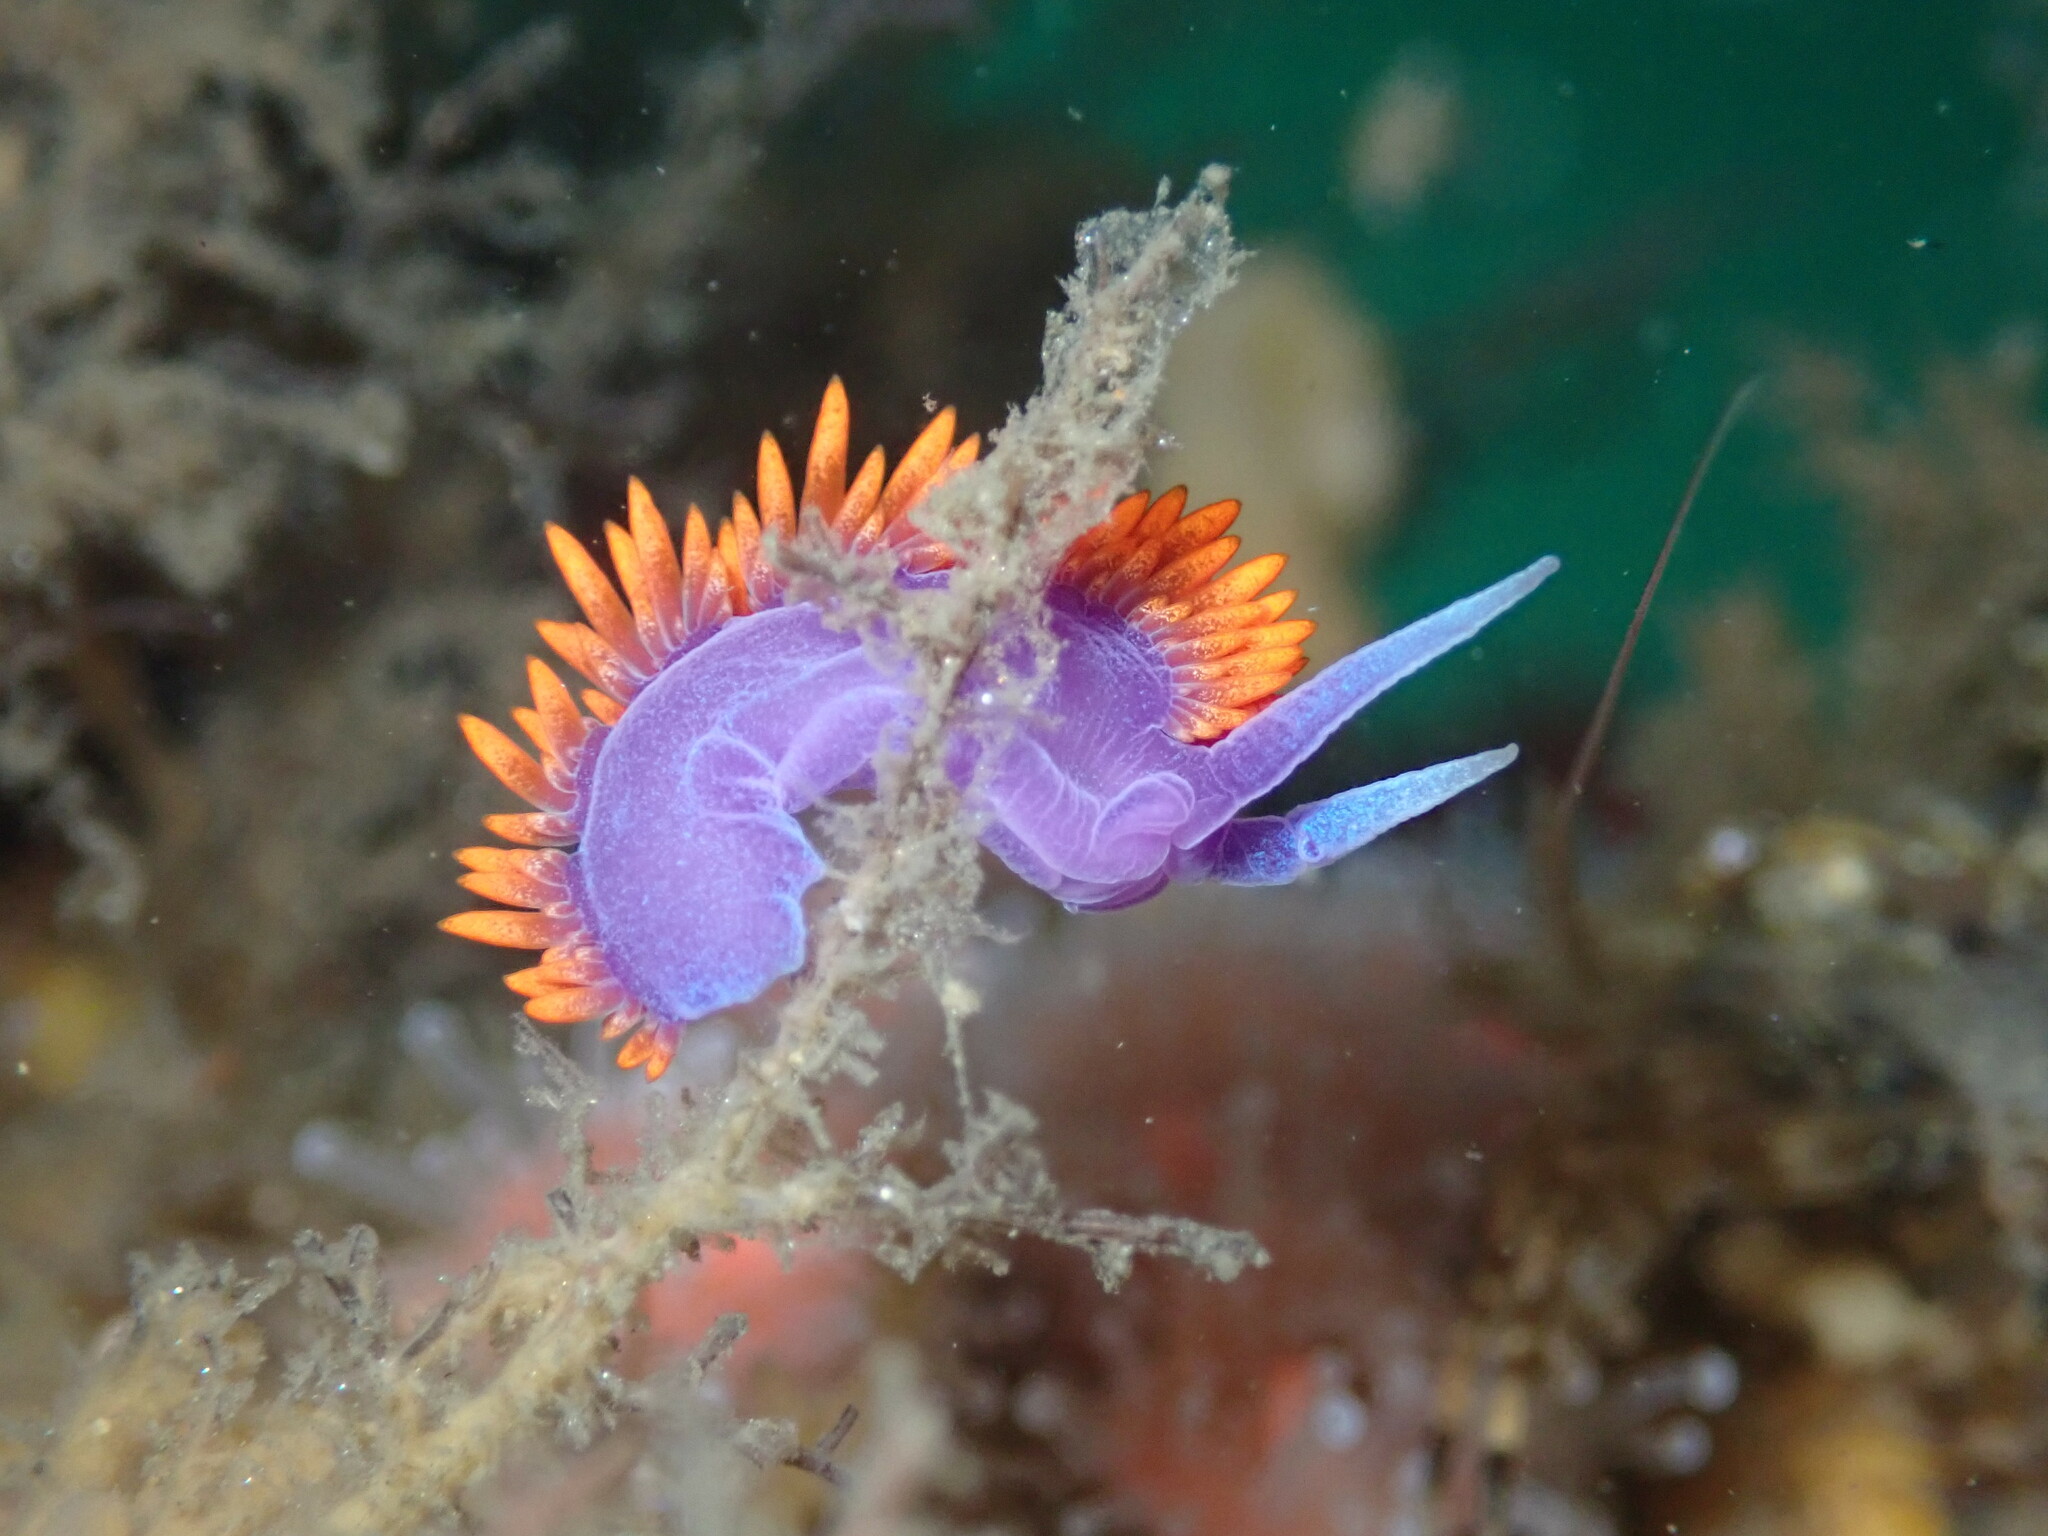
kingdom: Animalia
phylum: Mollusca
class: Gastropoda
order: Nudibranchia
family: Flabellinopsidae
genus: Flabellinopsis
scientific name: Flabellinopsis iodinea
